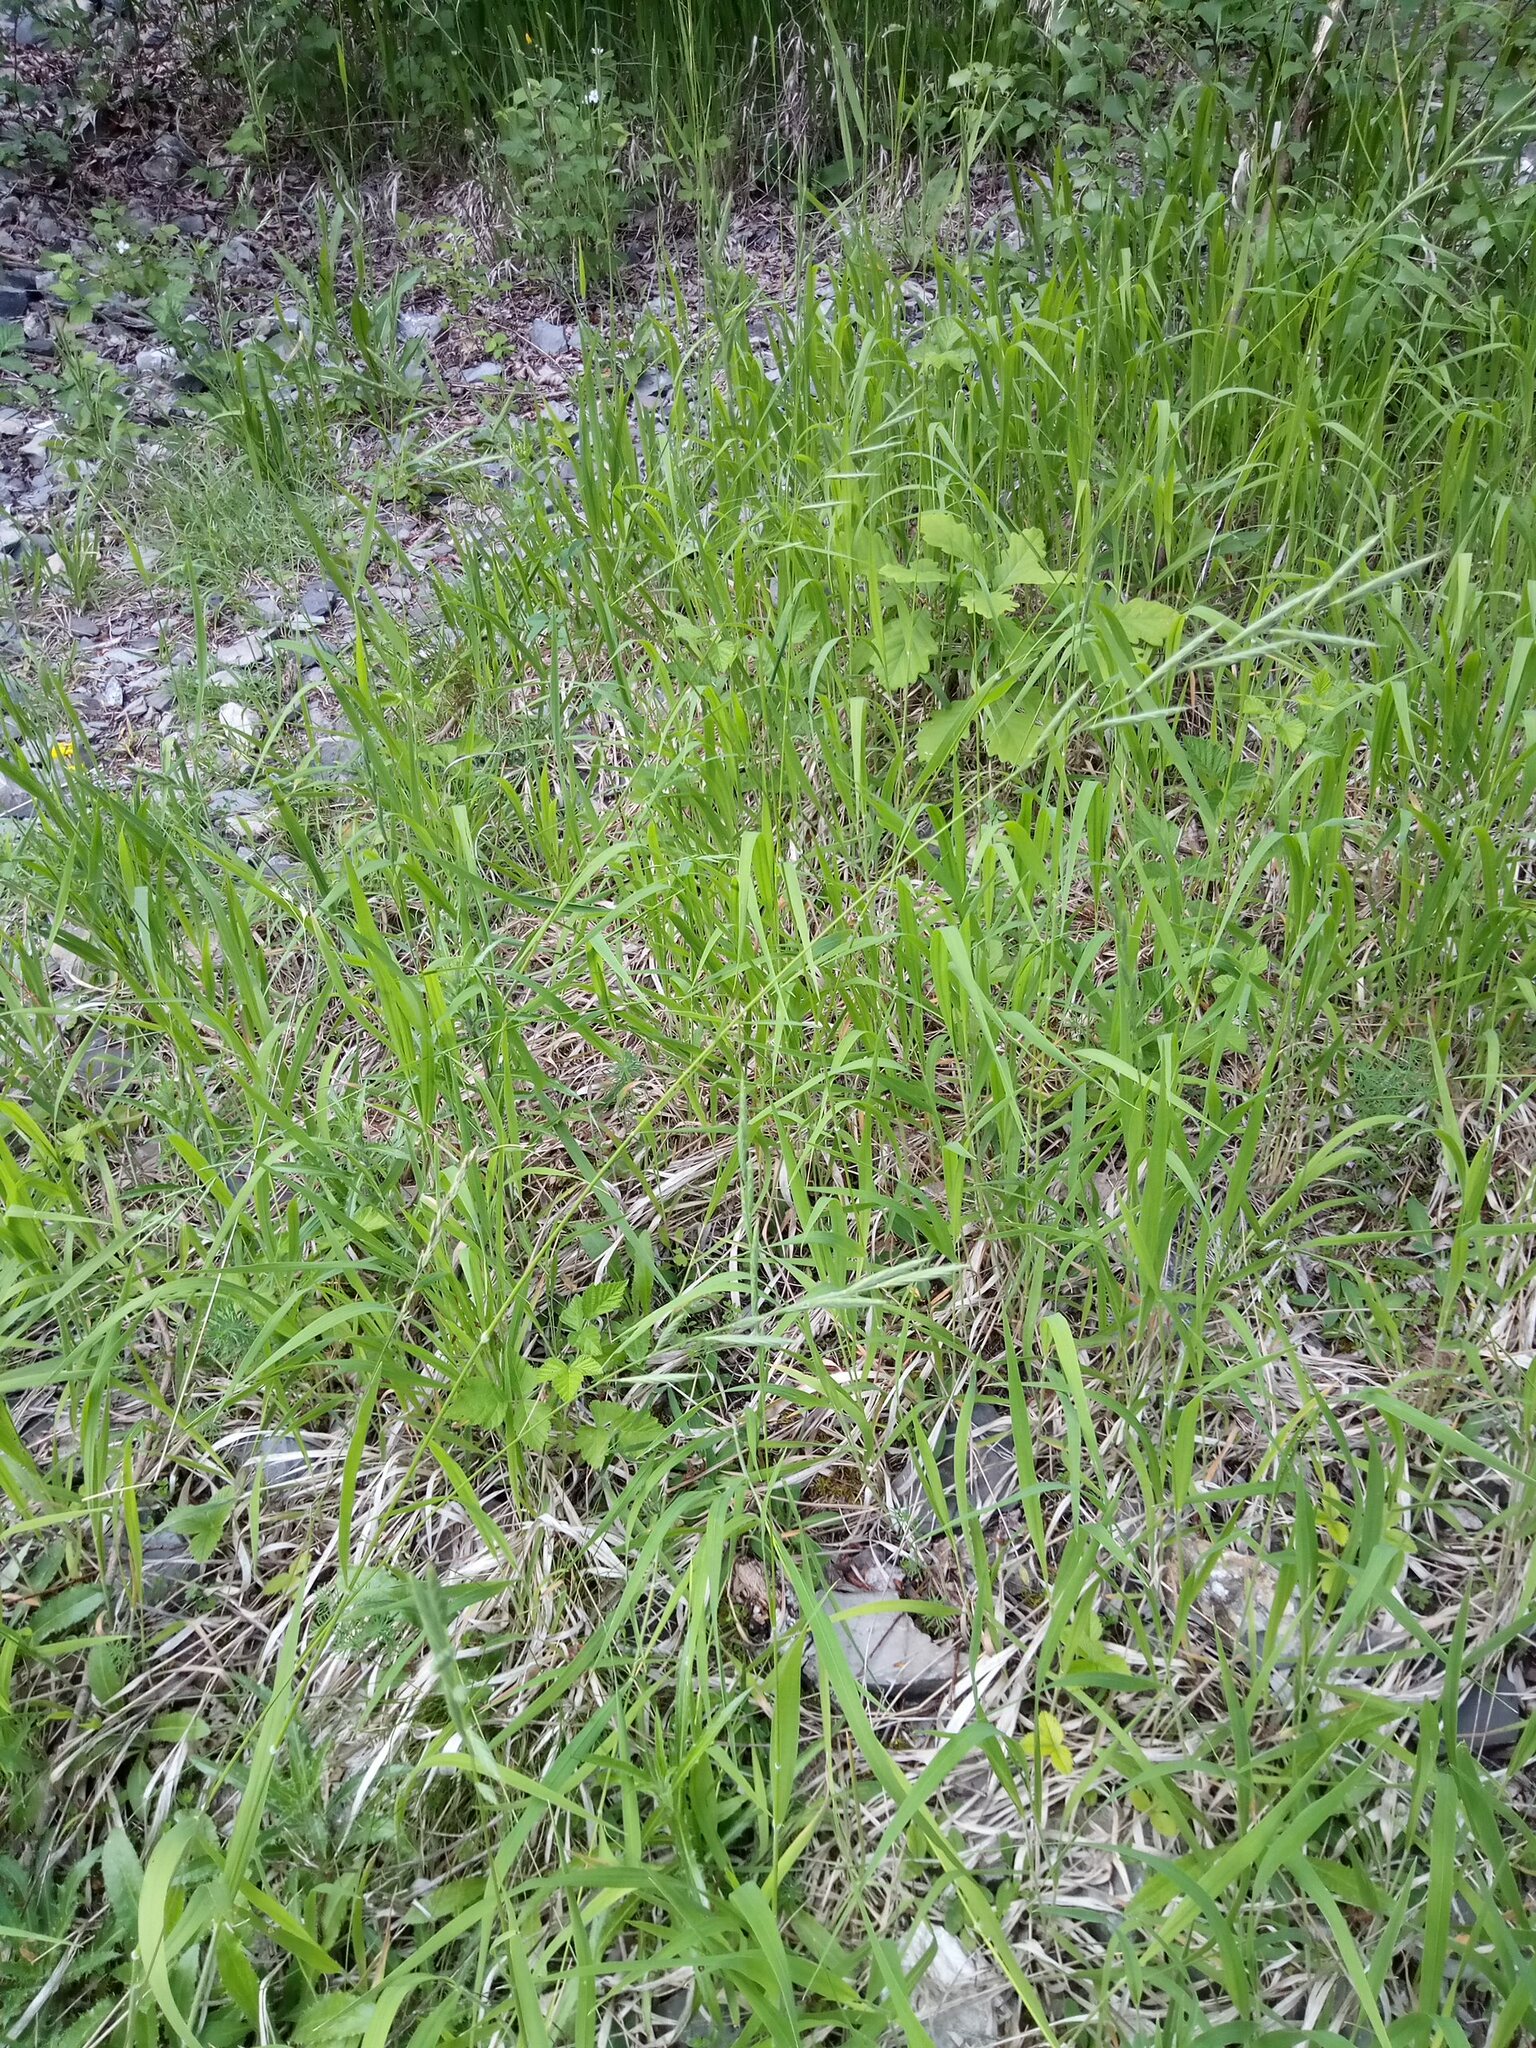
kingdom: Plantae
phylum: Tracheophyta
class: Liliopsida
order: Poales
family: Poaceae
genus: Brachypodium
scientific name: Brachypodium pinnatum
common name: Tor grass
